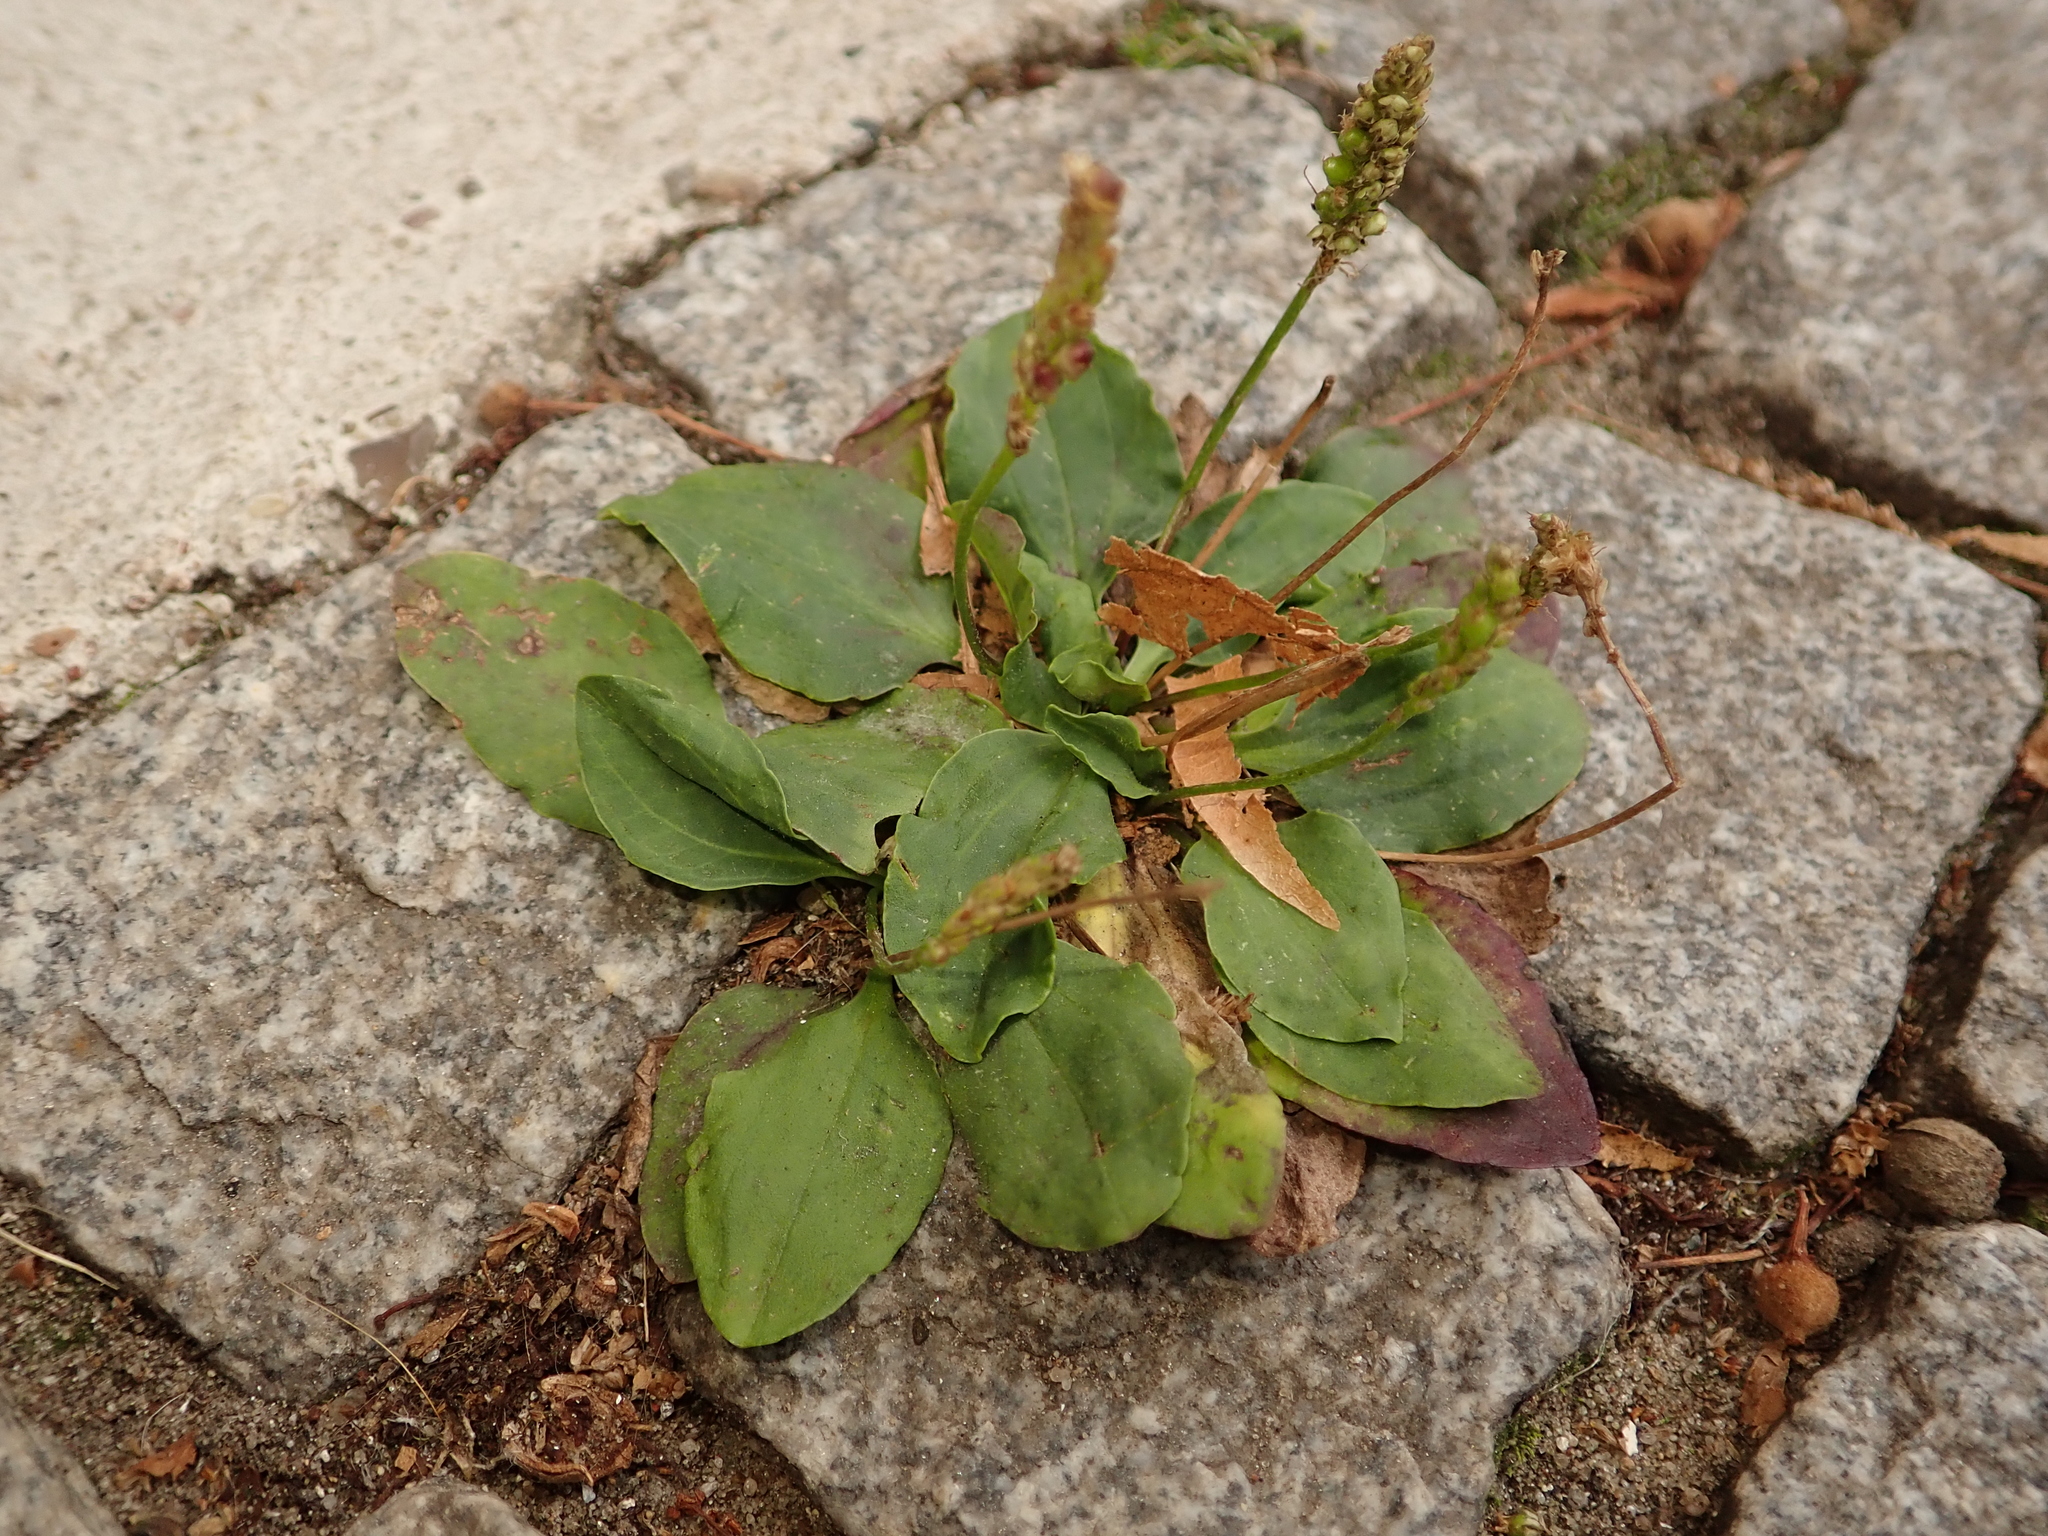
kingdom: Plantae
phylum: Tracheophyta
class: Magnoliopsida
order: Lamiales
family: Plantaginaceae
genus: Plantago
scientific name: Plantago major
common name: Common plantain
